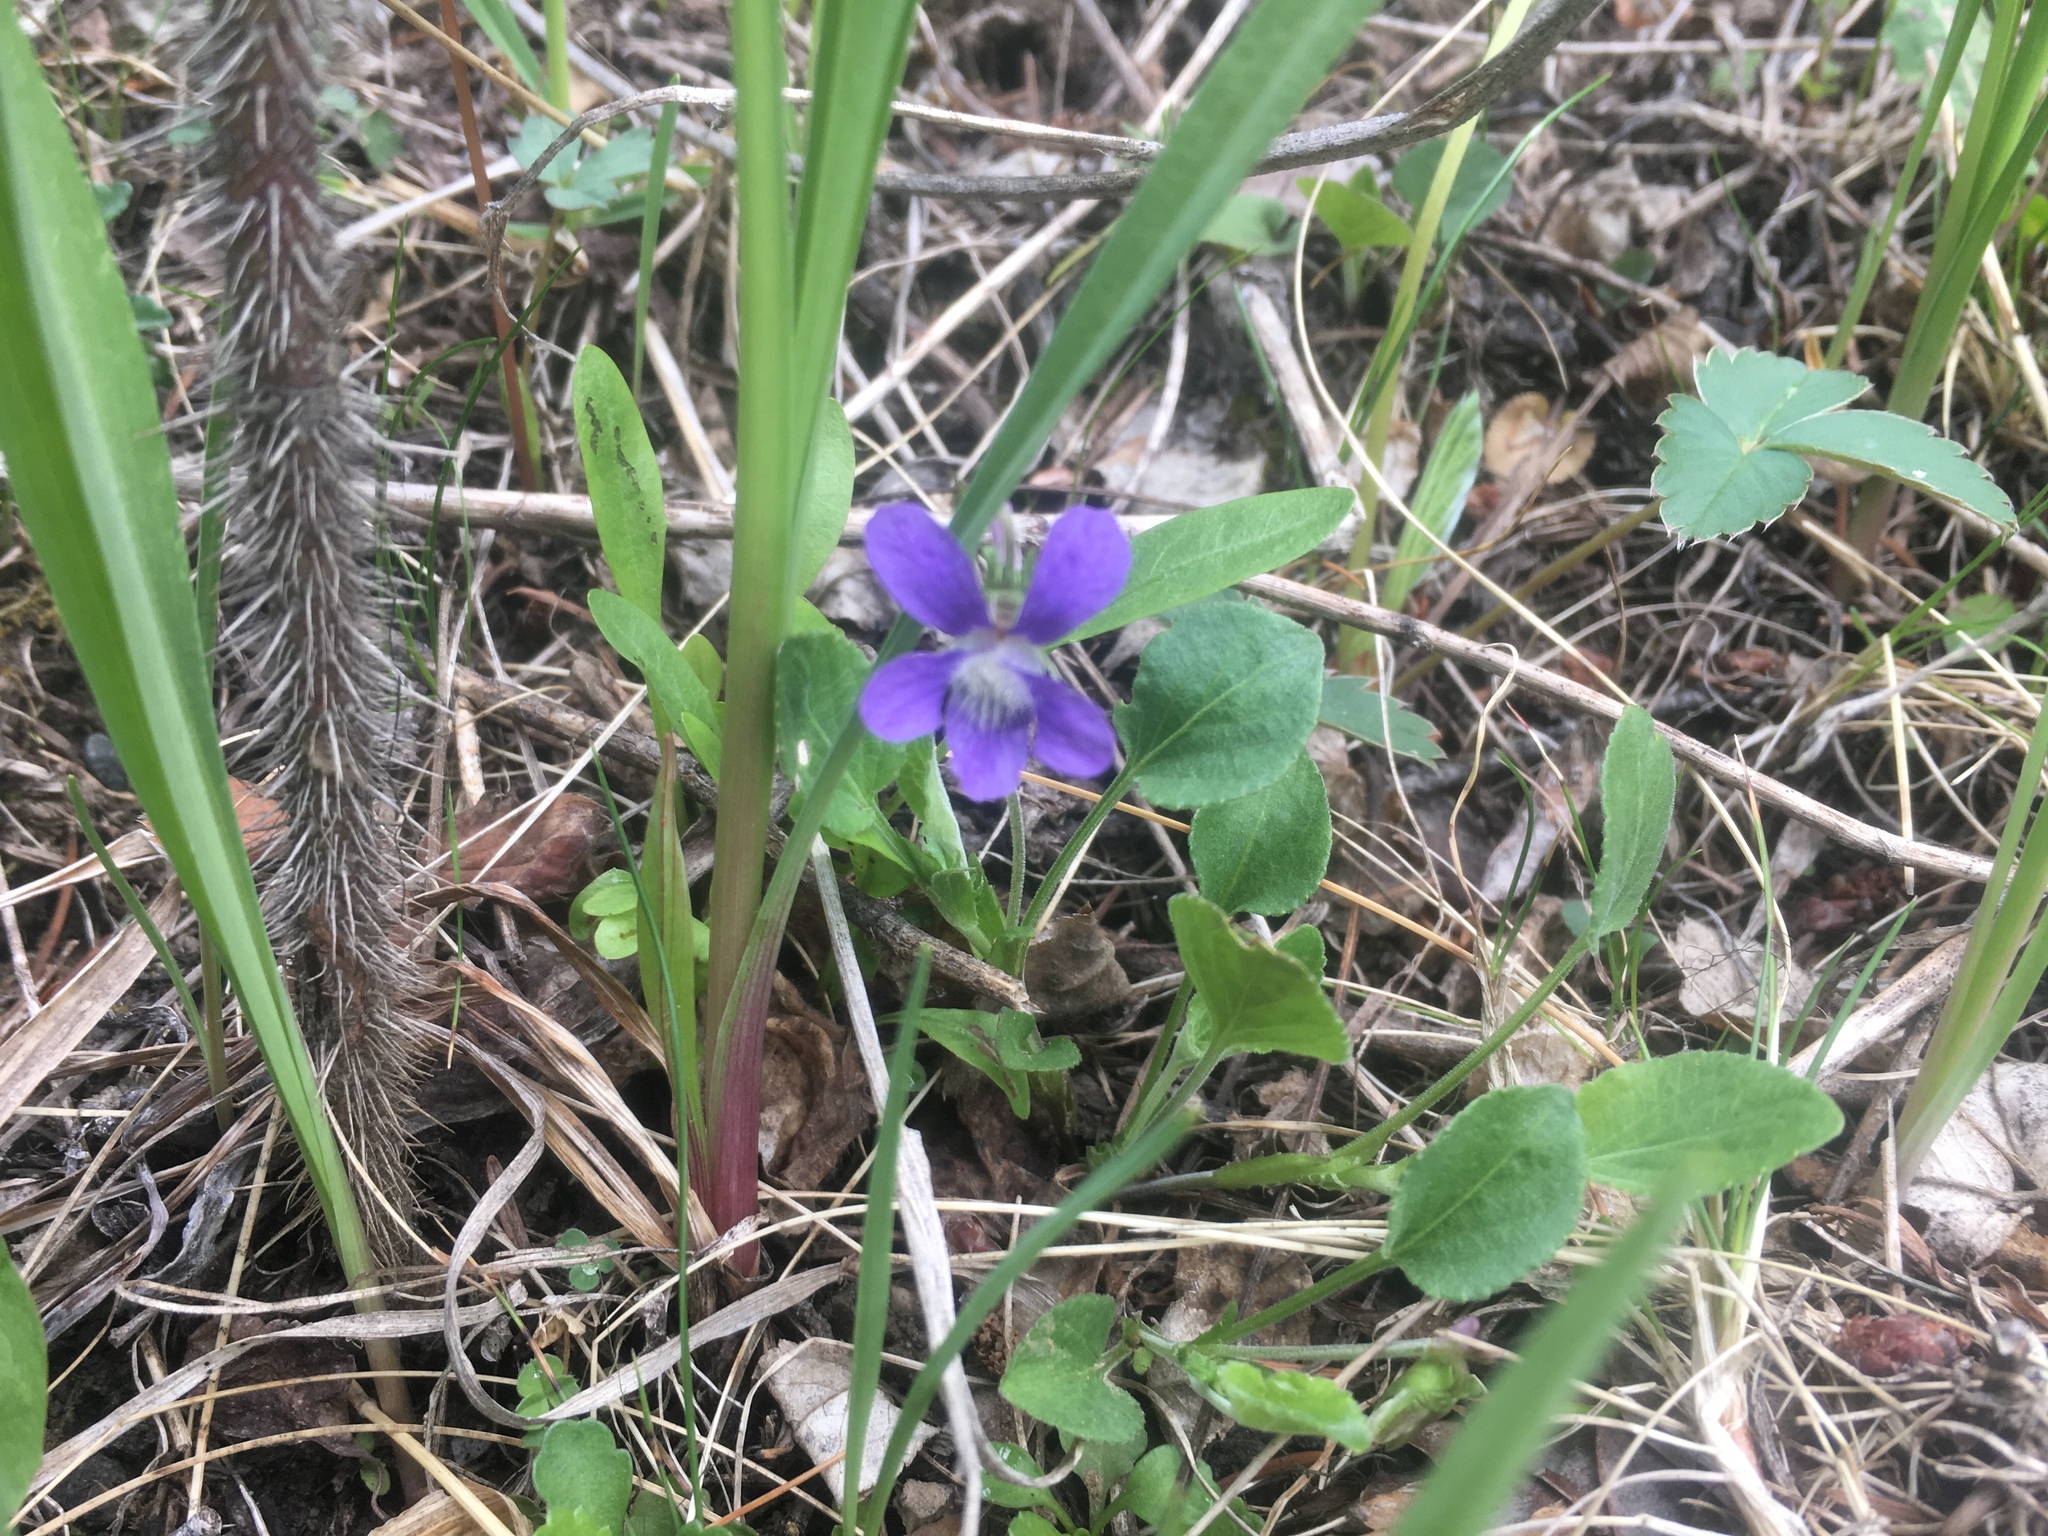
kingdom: Plantae
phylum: Tracheophyta
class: Magnoliopsida
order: Malpighiales
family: Violaceae
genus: Viola
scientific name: Viola adunca
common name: Sand violet
